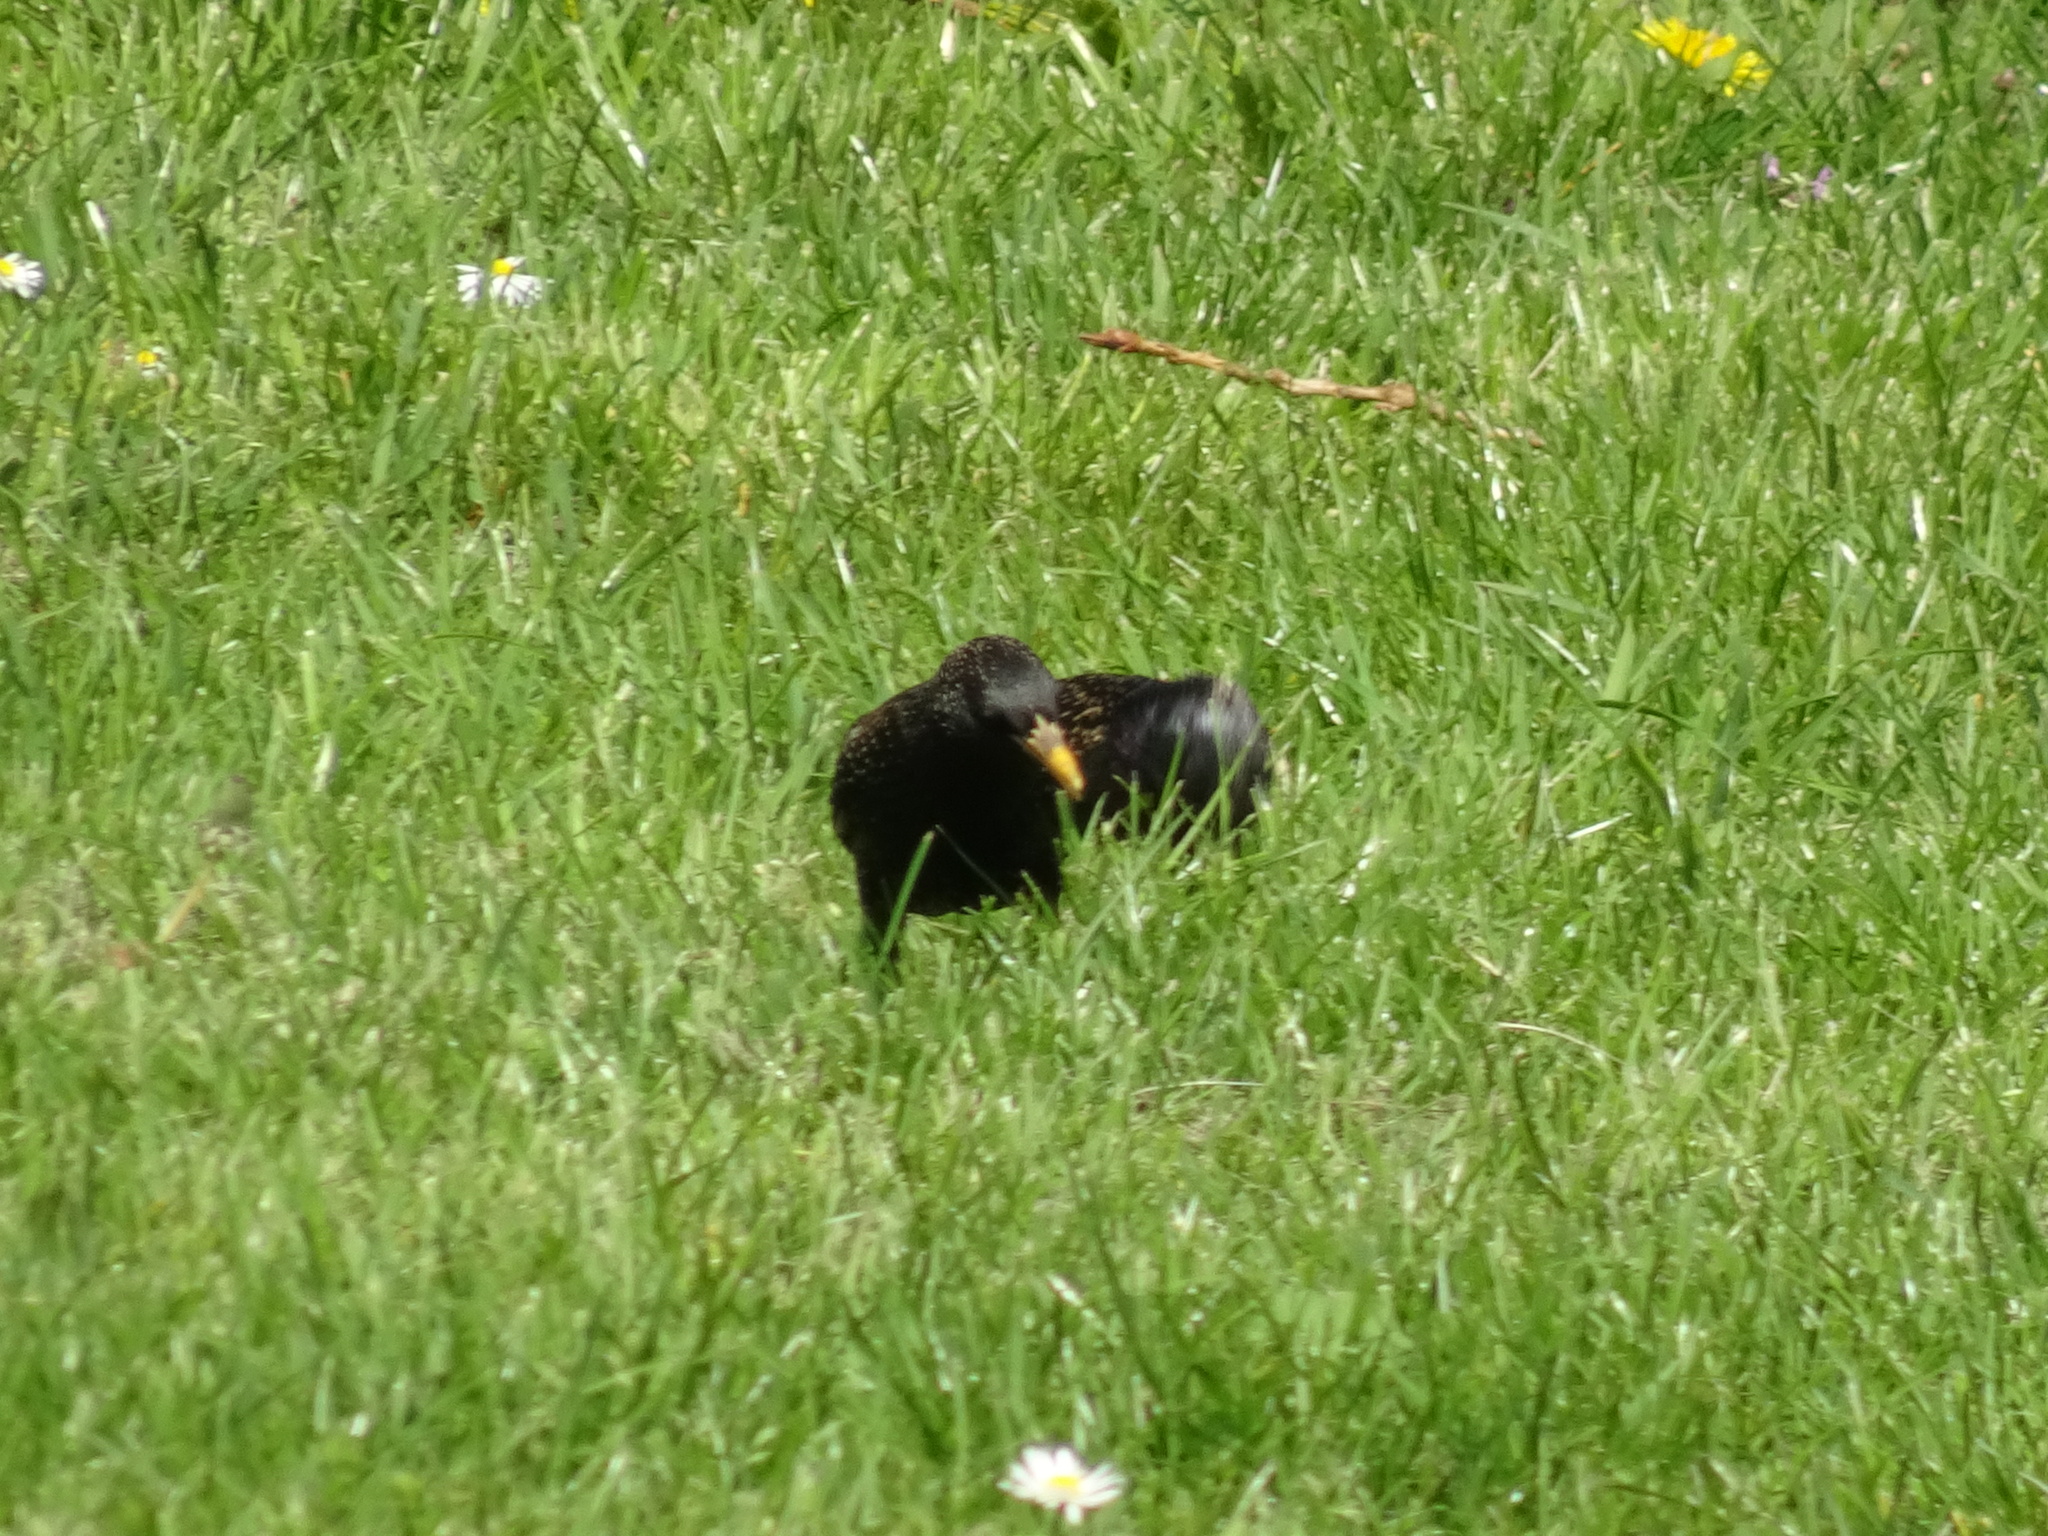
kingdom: Animalia
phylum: Chordata
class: Aves
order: Passeriformes
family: Sturnidae
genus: Sturnus
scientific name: Sturnus vulgaris
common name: Common starling
